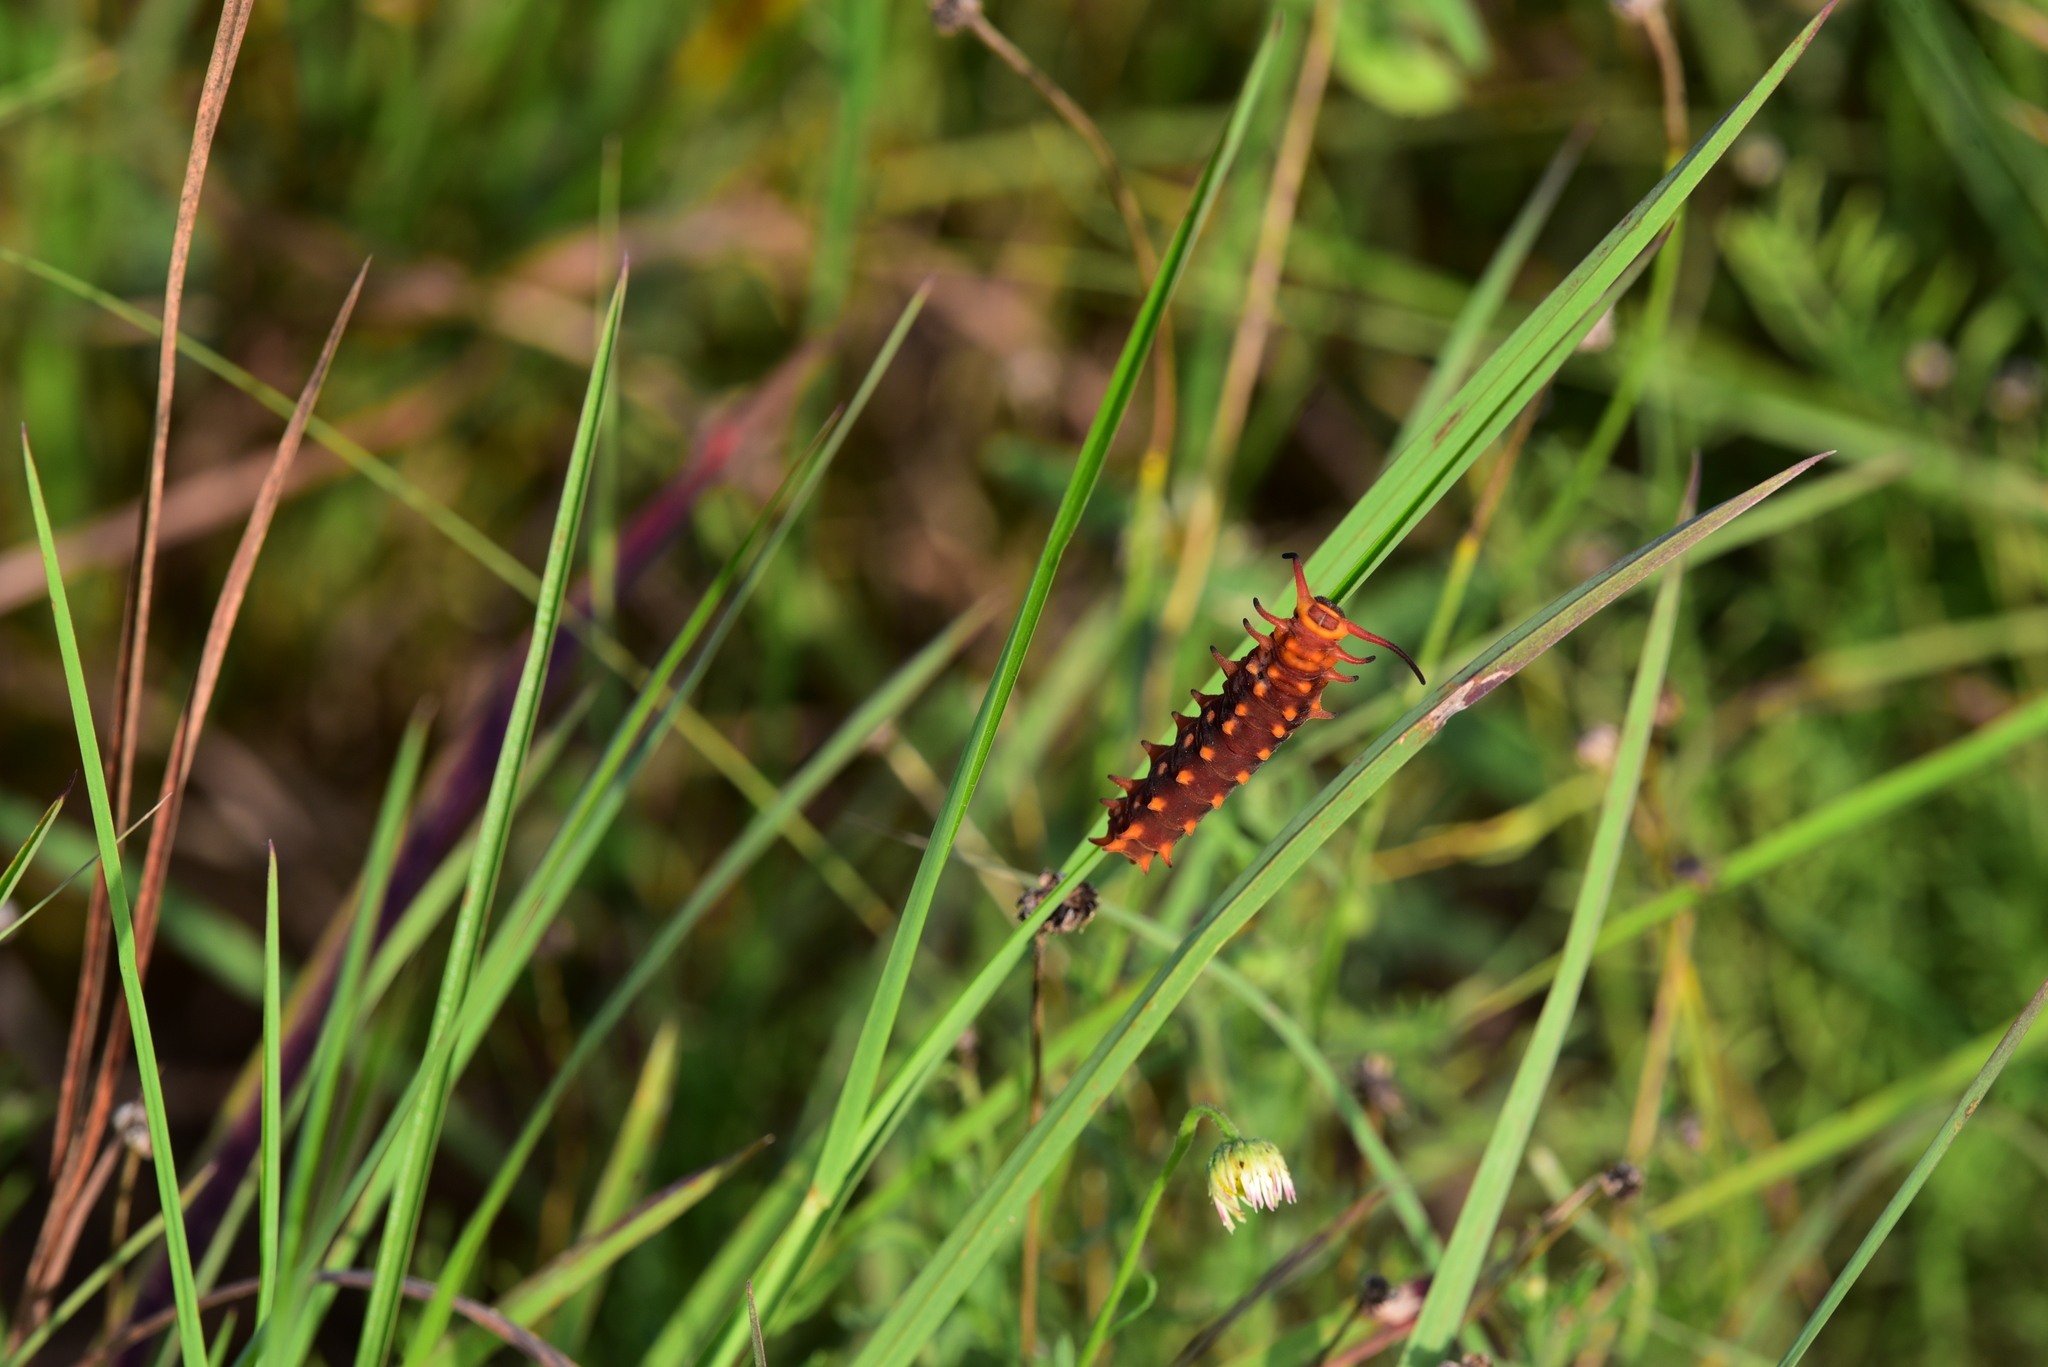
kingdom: Animalia
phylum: Arthropoda
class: Insecta
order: Lepidoptera
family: Papilionidae
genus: Battus
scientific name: Battus philenor
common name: Pipevine swallowtail
